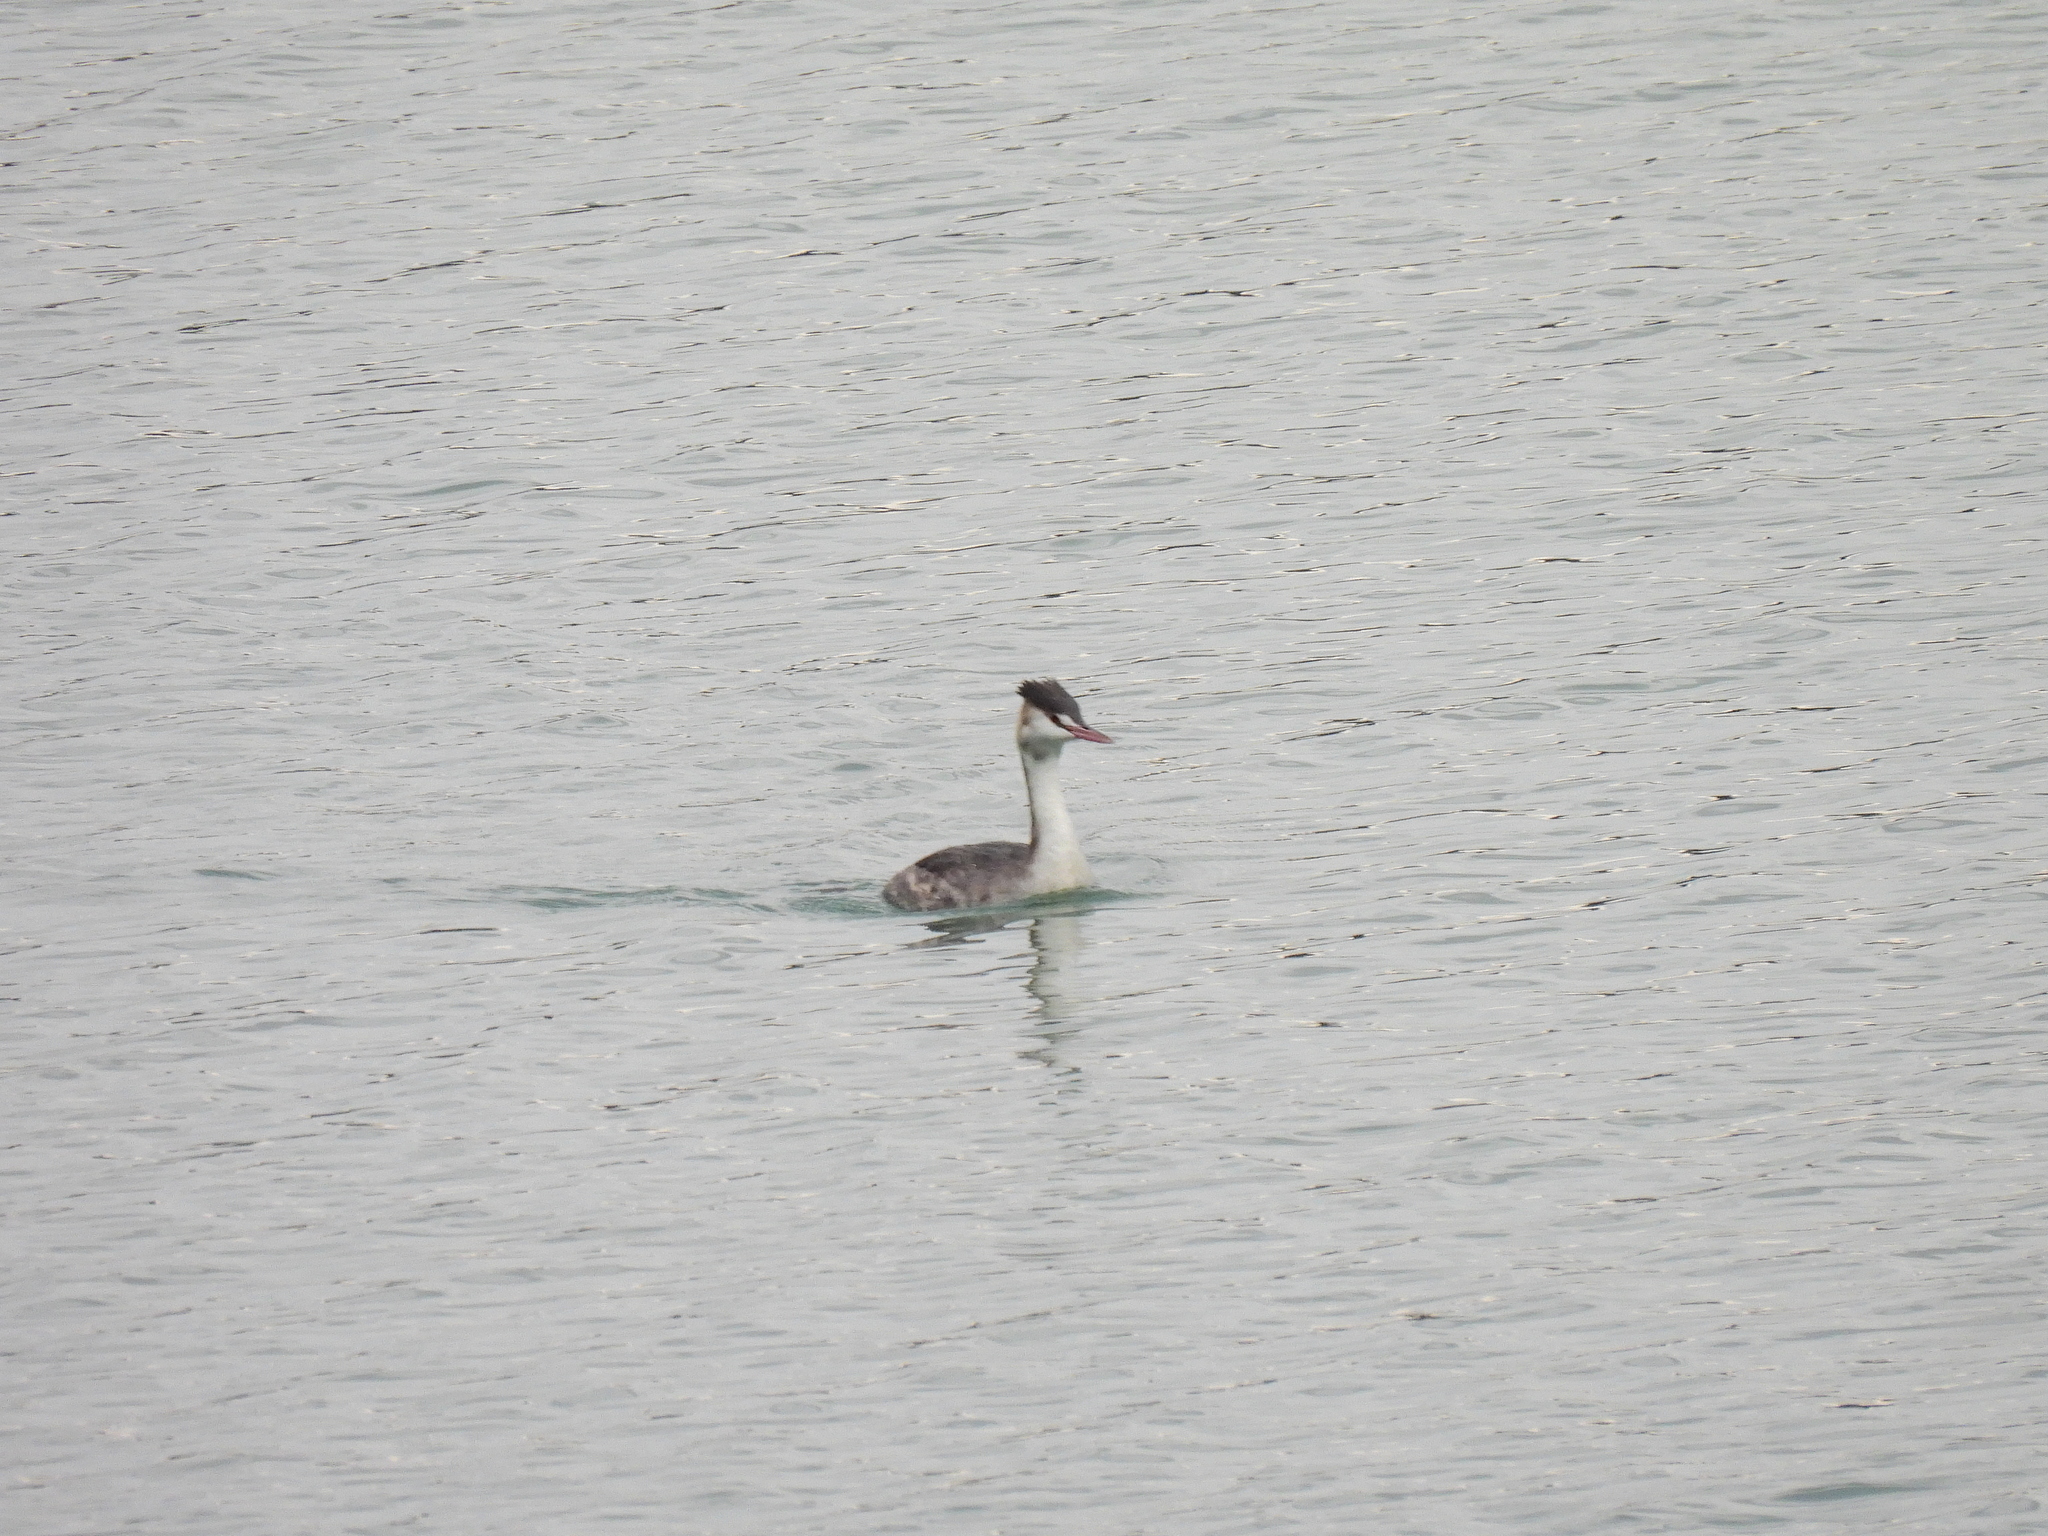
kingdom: Animalia
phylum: Chordata
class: Aves
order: Podicipediformes
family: Podicipedidae
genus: Podiceps
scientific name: Podiceps cristatus
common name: Great crested grebe
